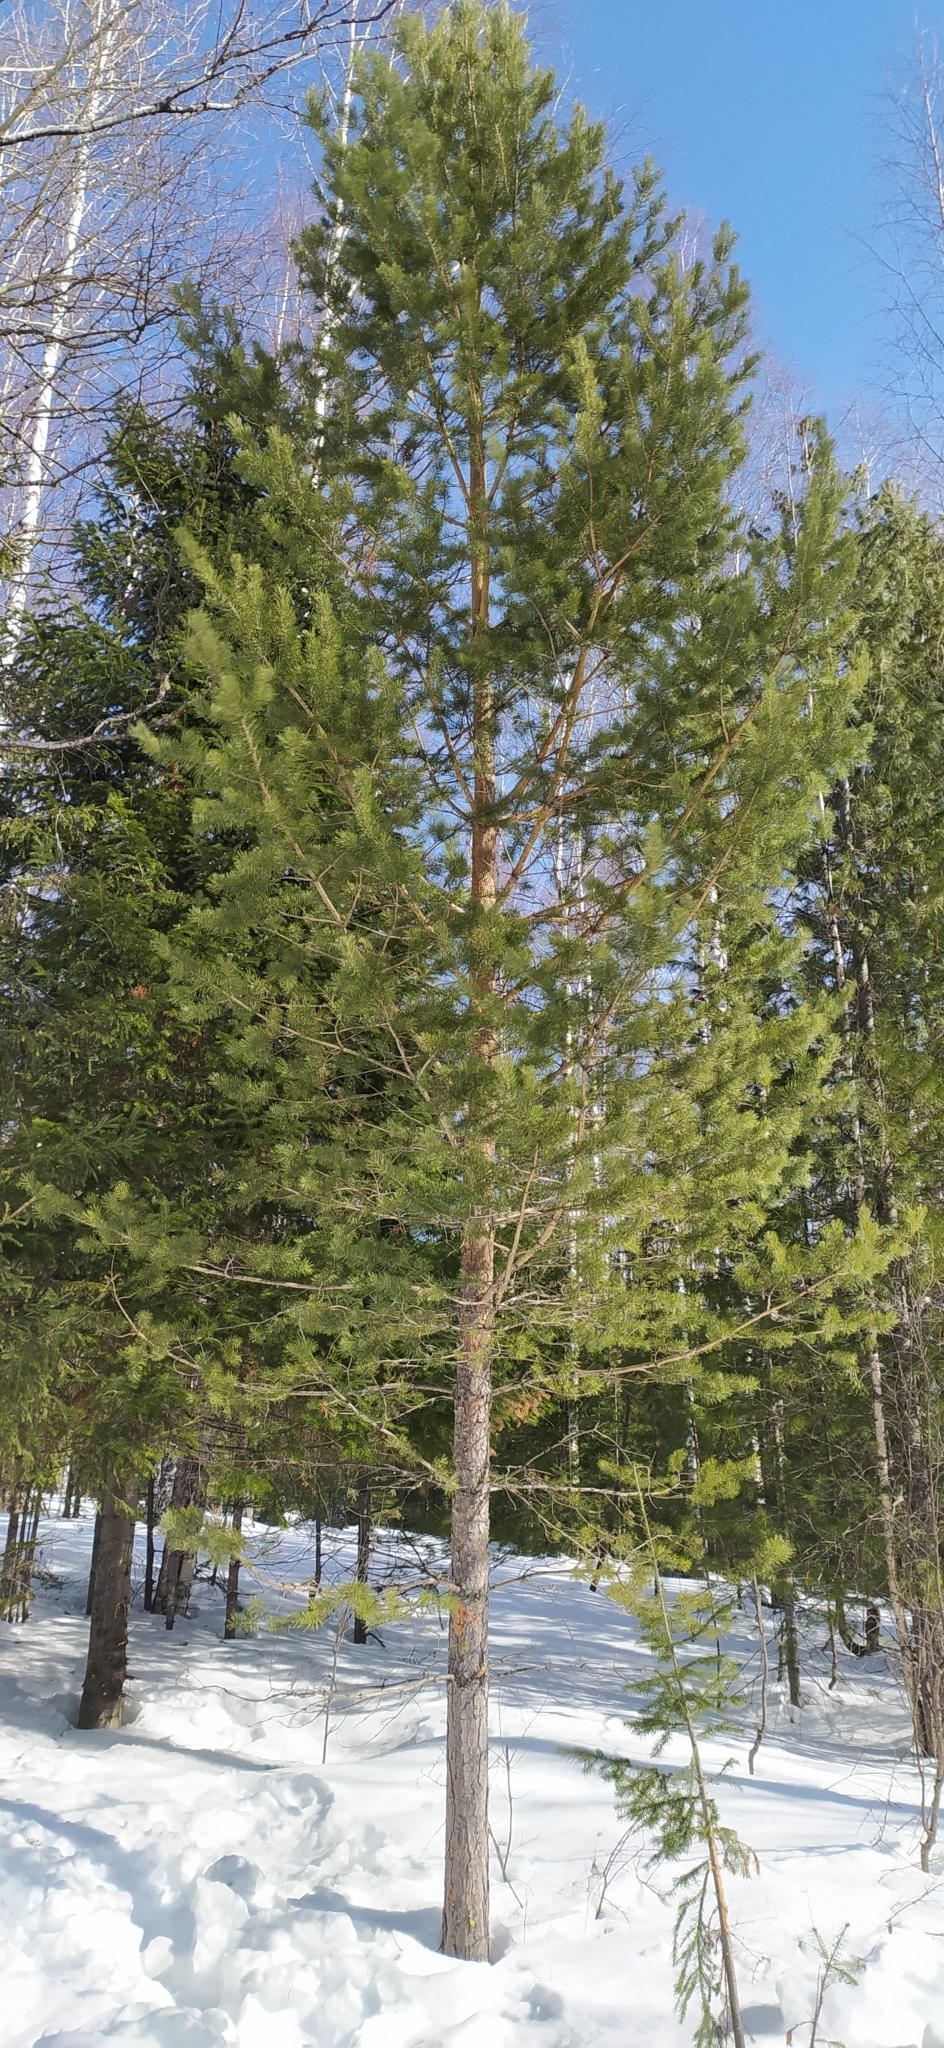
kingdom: Plantae
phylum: Tracheophyta
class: Pinopsida
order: Pinales
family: Pinaceae
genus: Pinus
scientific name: Pinus sylvestris
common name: Scots pine
